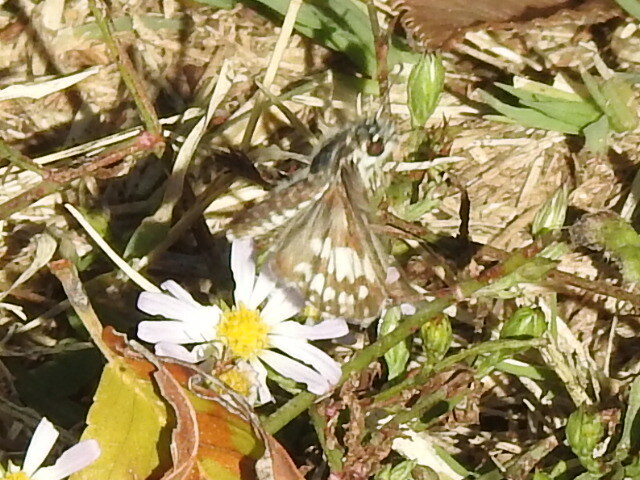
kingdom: Animalia
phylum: Arthropoda
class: Insecta
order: Lepidoptera
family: Hesperiidae
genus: Burnsius
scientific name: Burnsius
